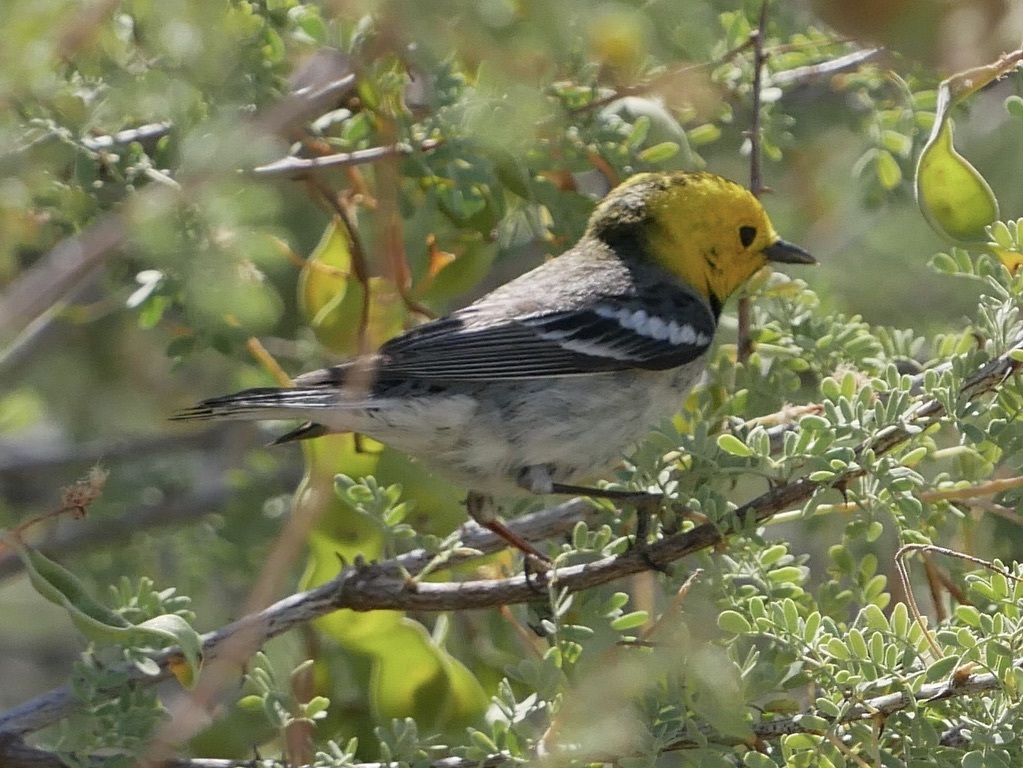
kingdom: Animalia
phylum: Chordata
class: Aves
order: Passeriformes
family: Parulidae
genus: Setophaga
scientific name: Setophaga occidentalis
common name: Hermit warbler
